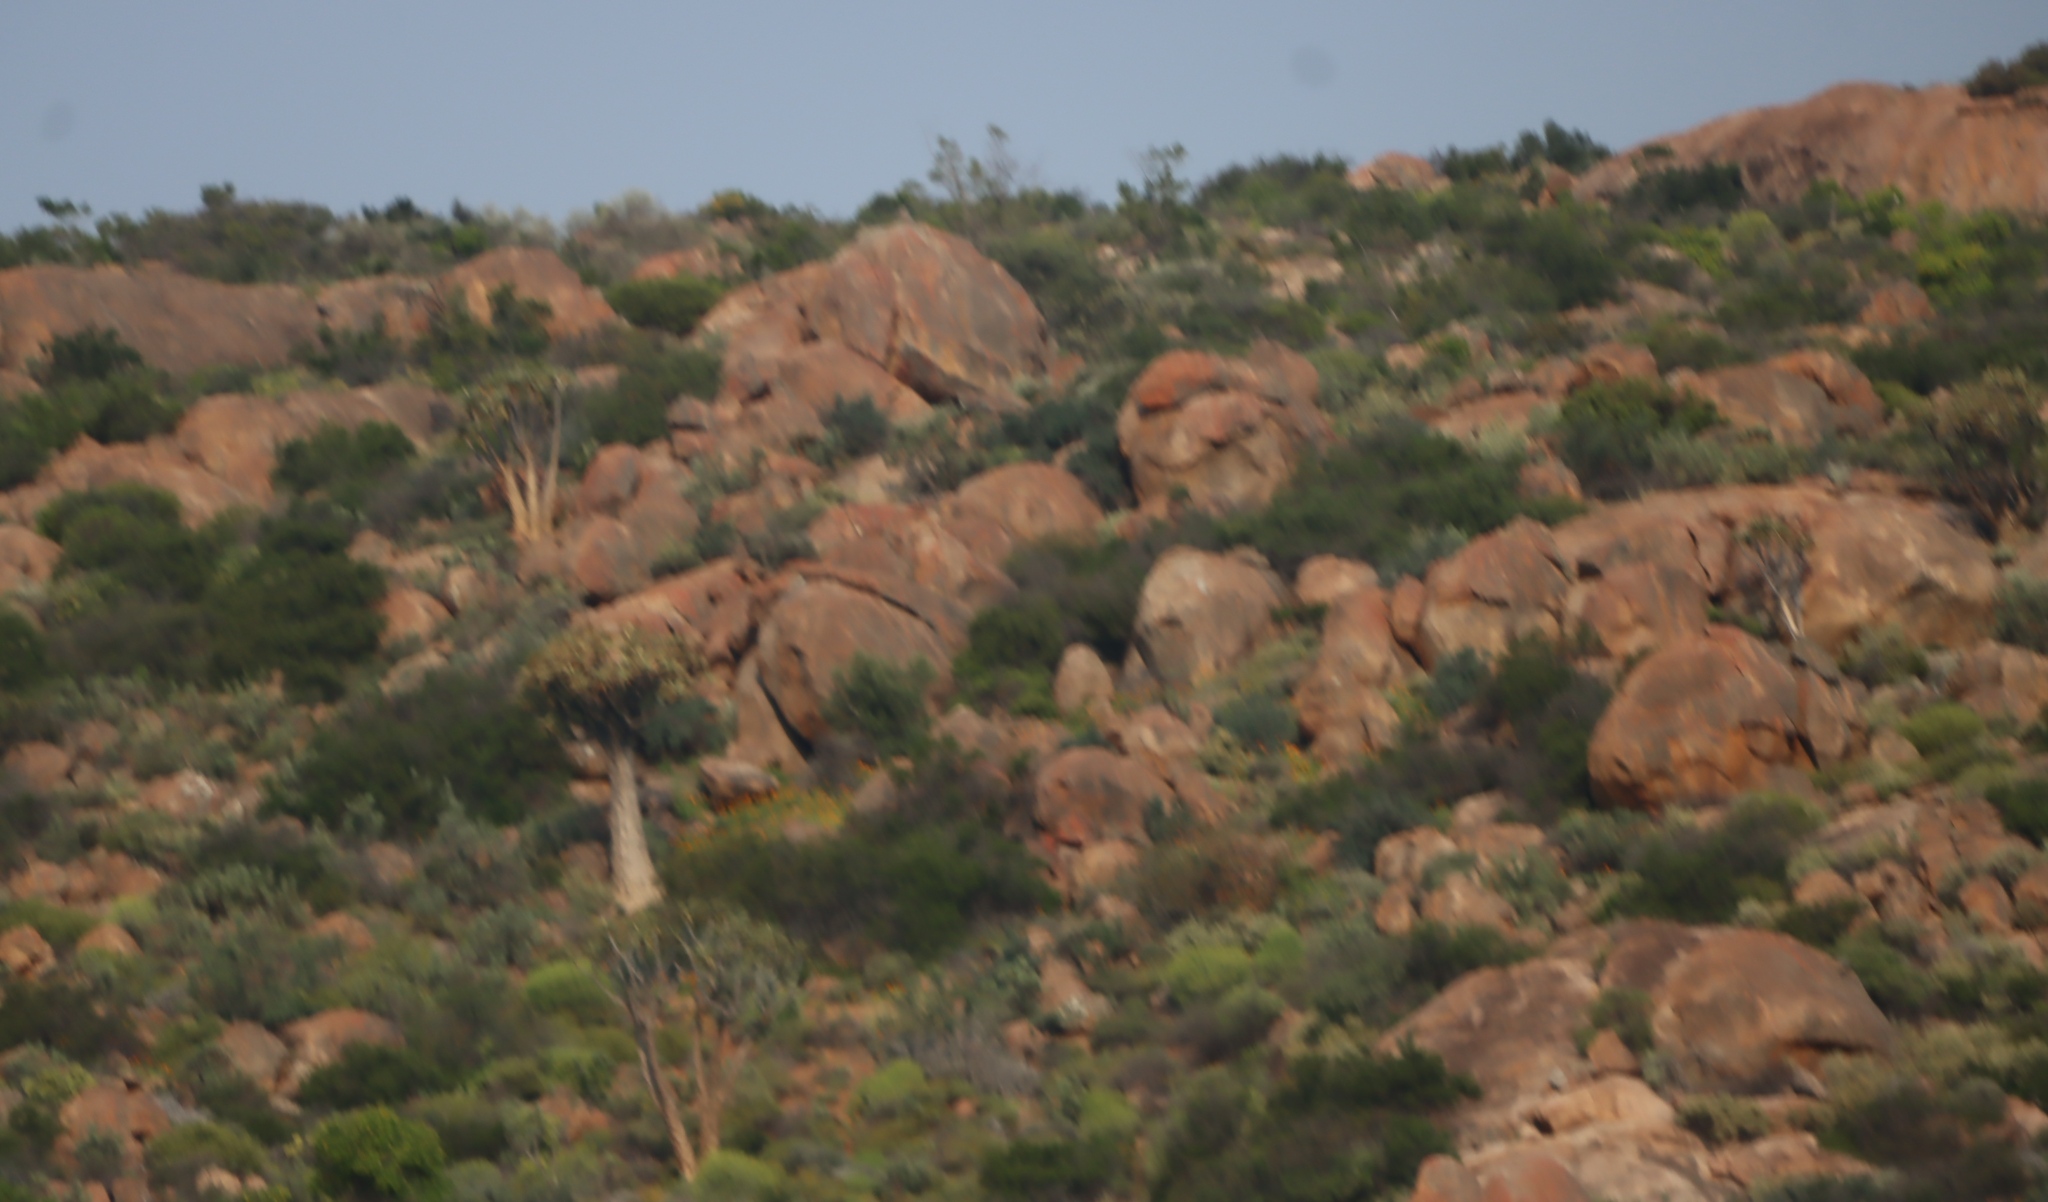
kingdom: Plantae
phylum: Tracheophyta
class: Liliopsida
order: Asparagales
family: Asphodelaceae
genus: Aloidendron
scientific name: Aloidendron dichotomum
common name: Quiver tree
